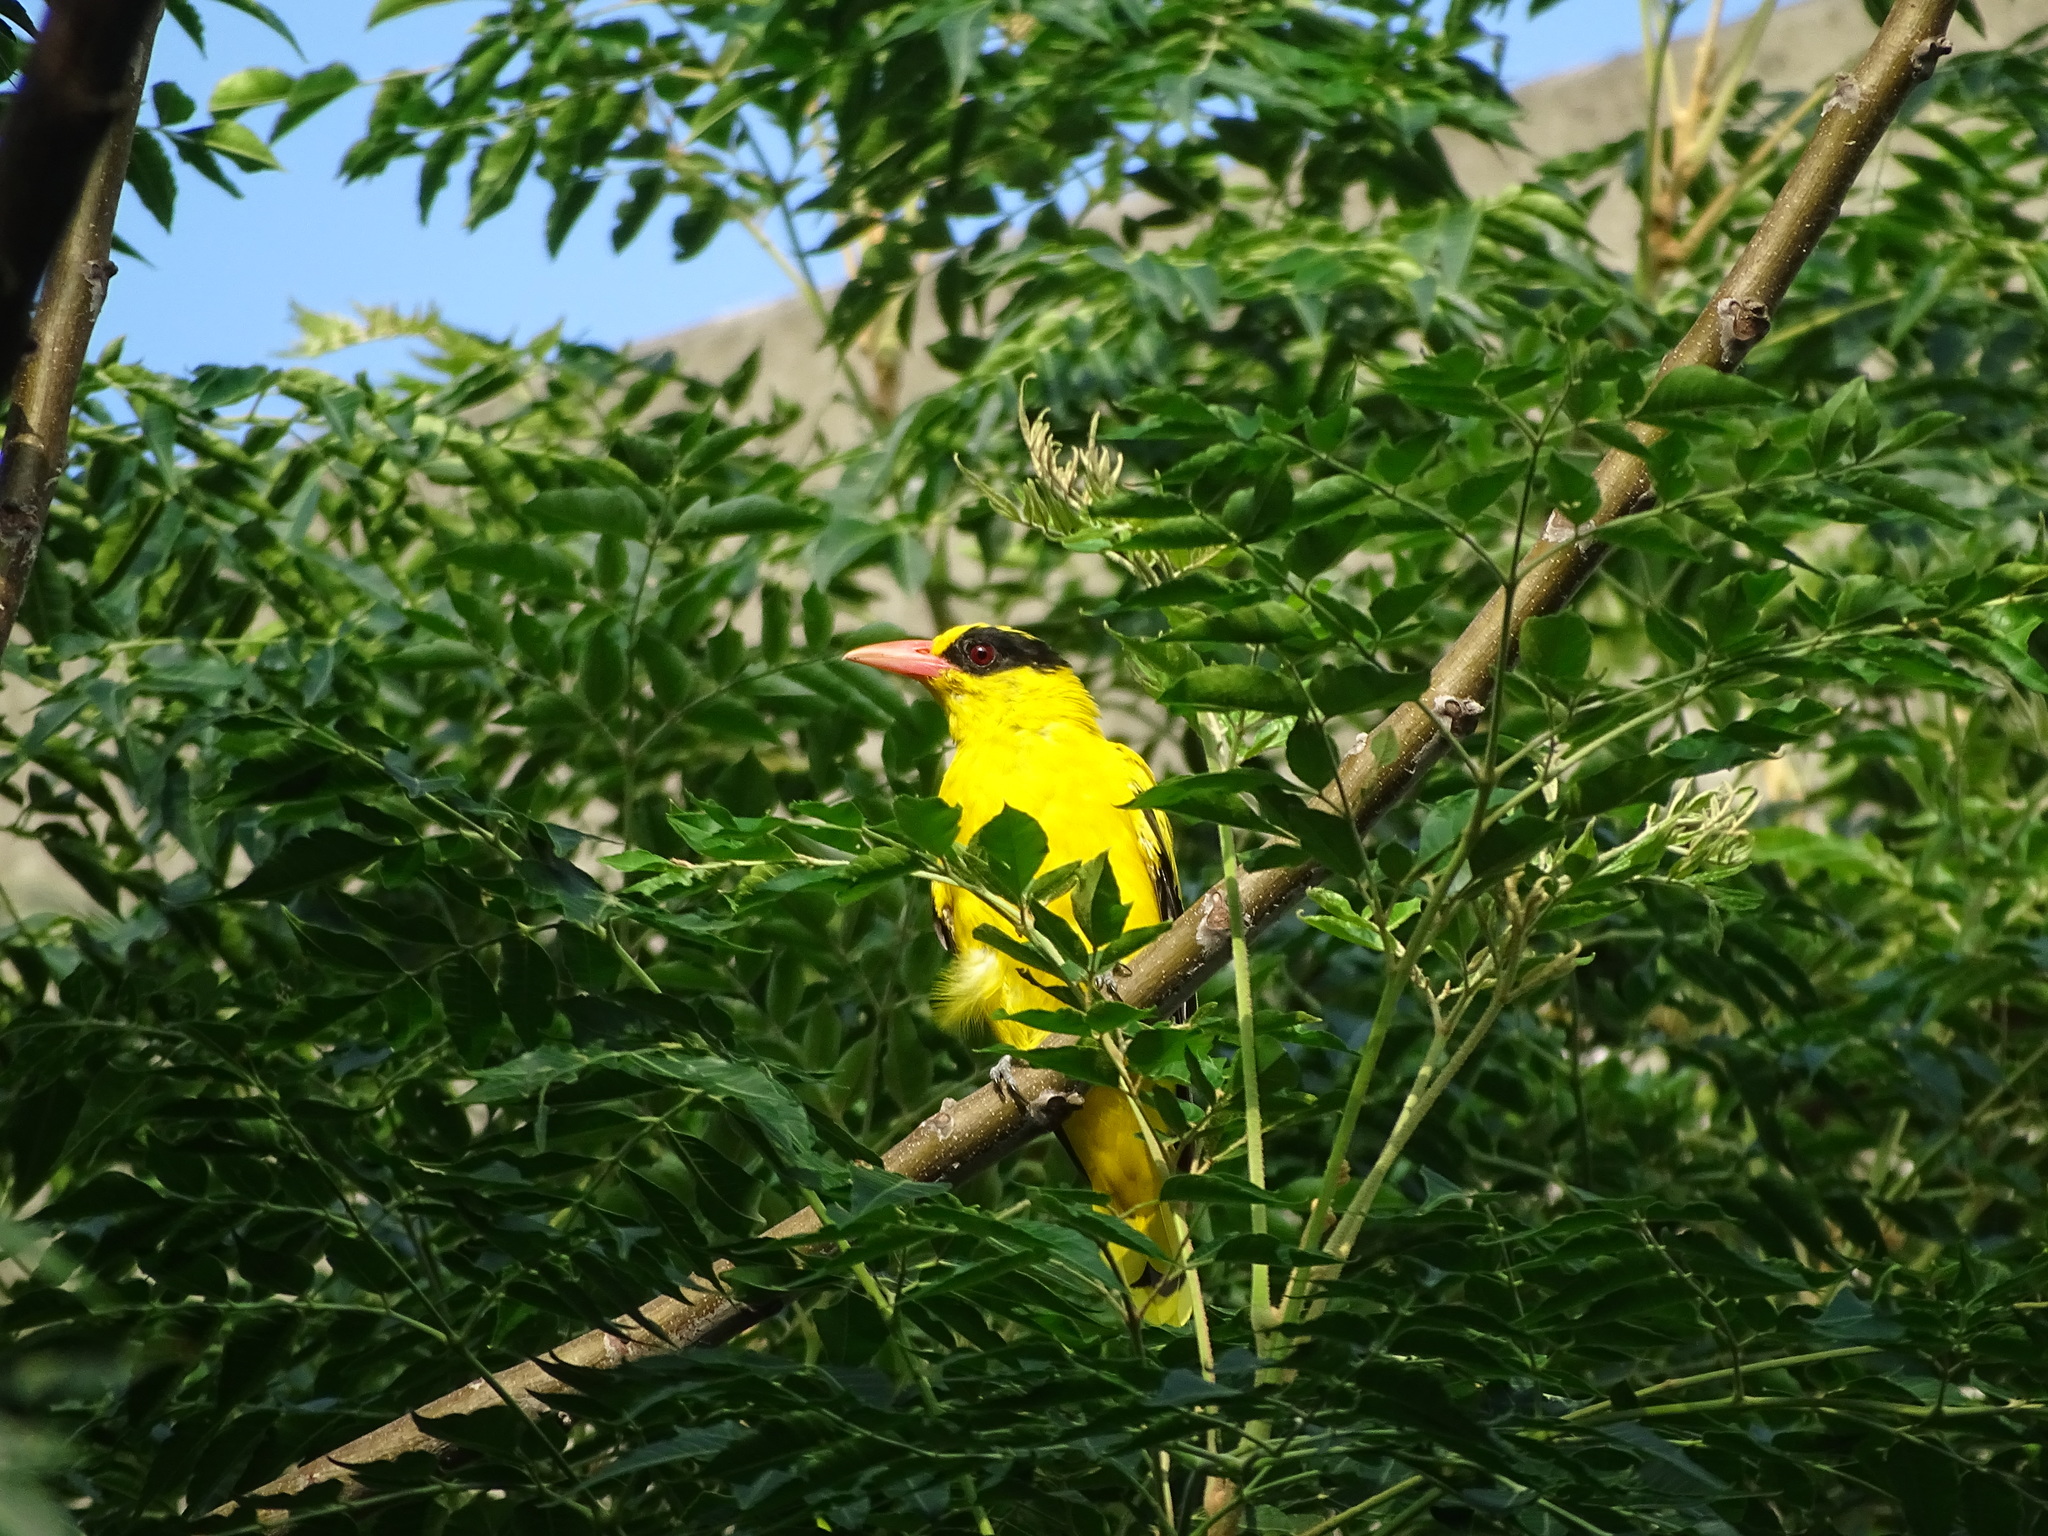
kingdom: Animalia
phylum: Chordata
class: Aves
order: Passeriformes
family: Oriolidae
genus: Oriolus
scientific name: Oriolus chinensis
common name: Black-naped oriole
